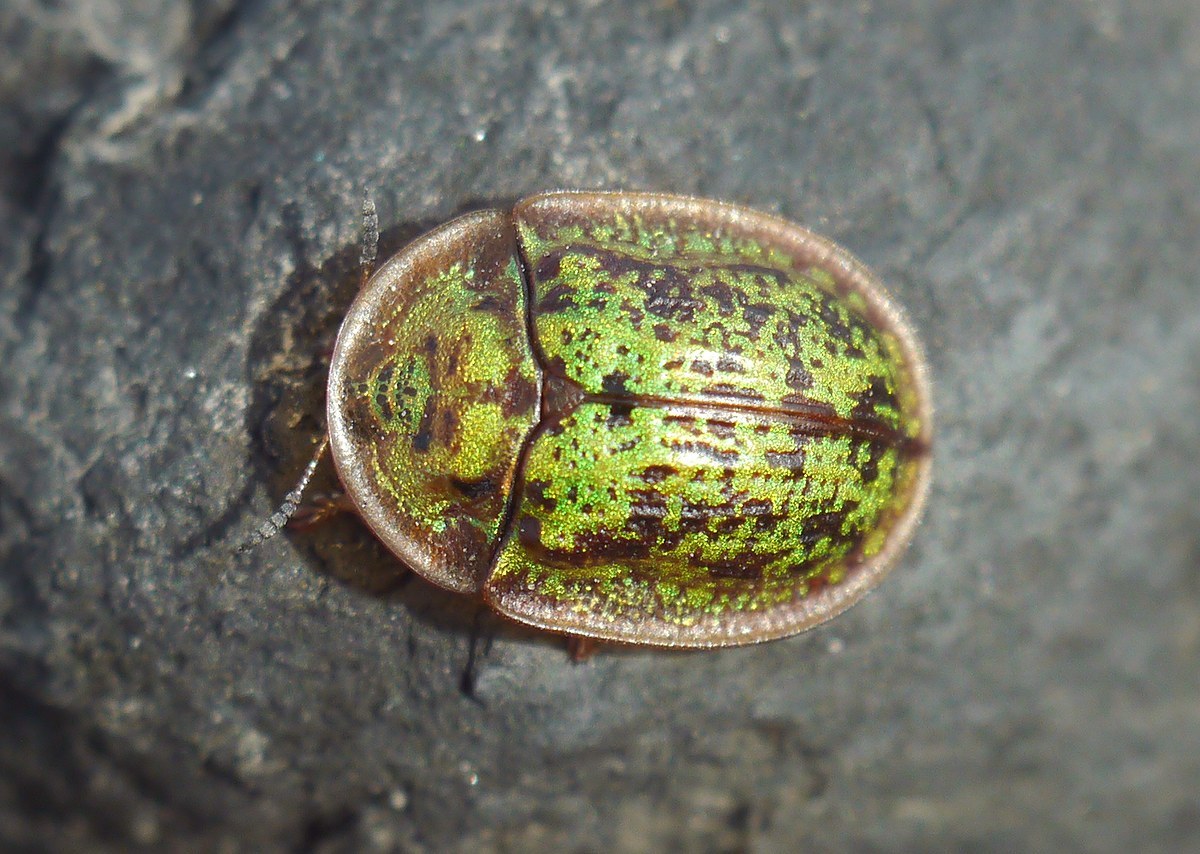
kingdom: Animalia
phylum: Arthropoda
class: Insecta
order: Coleoptera
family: Chrysomelidae
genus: Cassida
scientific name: Cassida canaliculata
